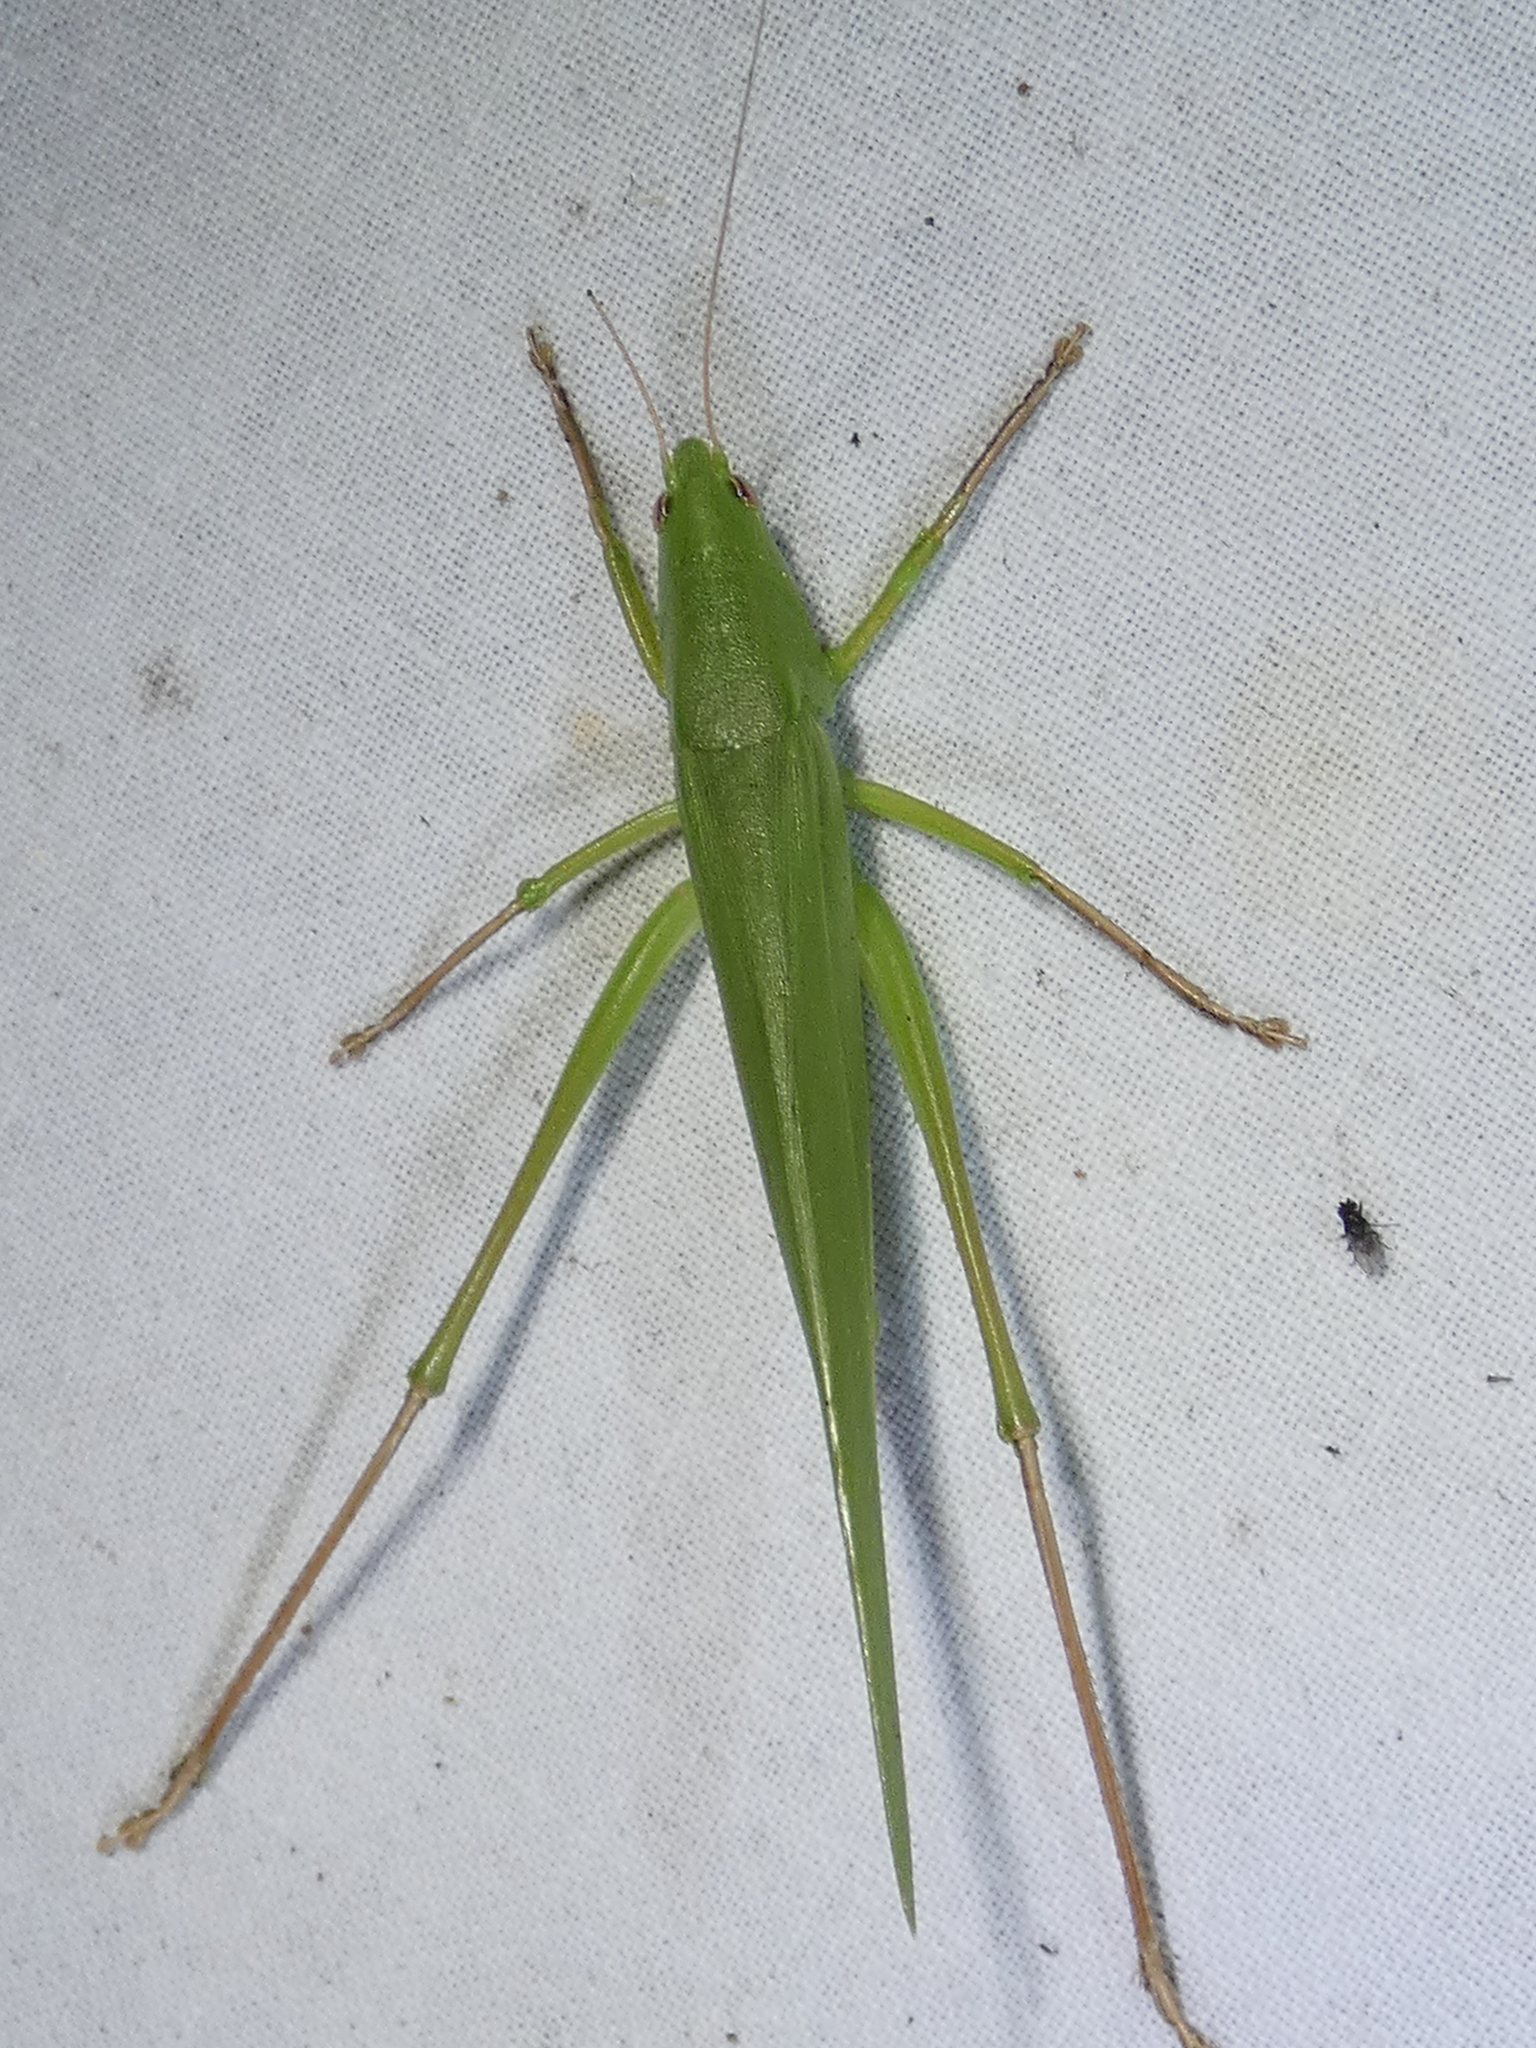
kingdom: Animalia
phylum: Arthropoda
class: Insecta
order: Orthoptera
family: Tettigoniidae
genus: Neoconocephalus
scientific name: Neoconocephalus triops
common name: Broad-tipped conehead
